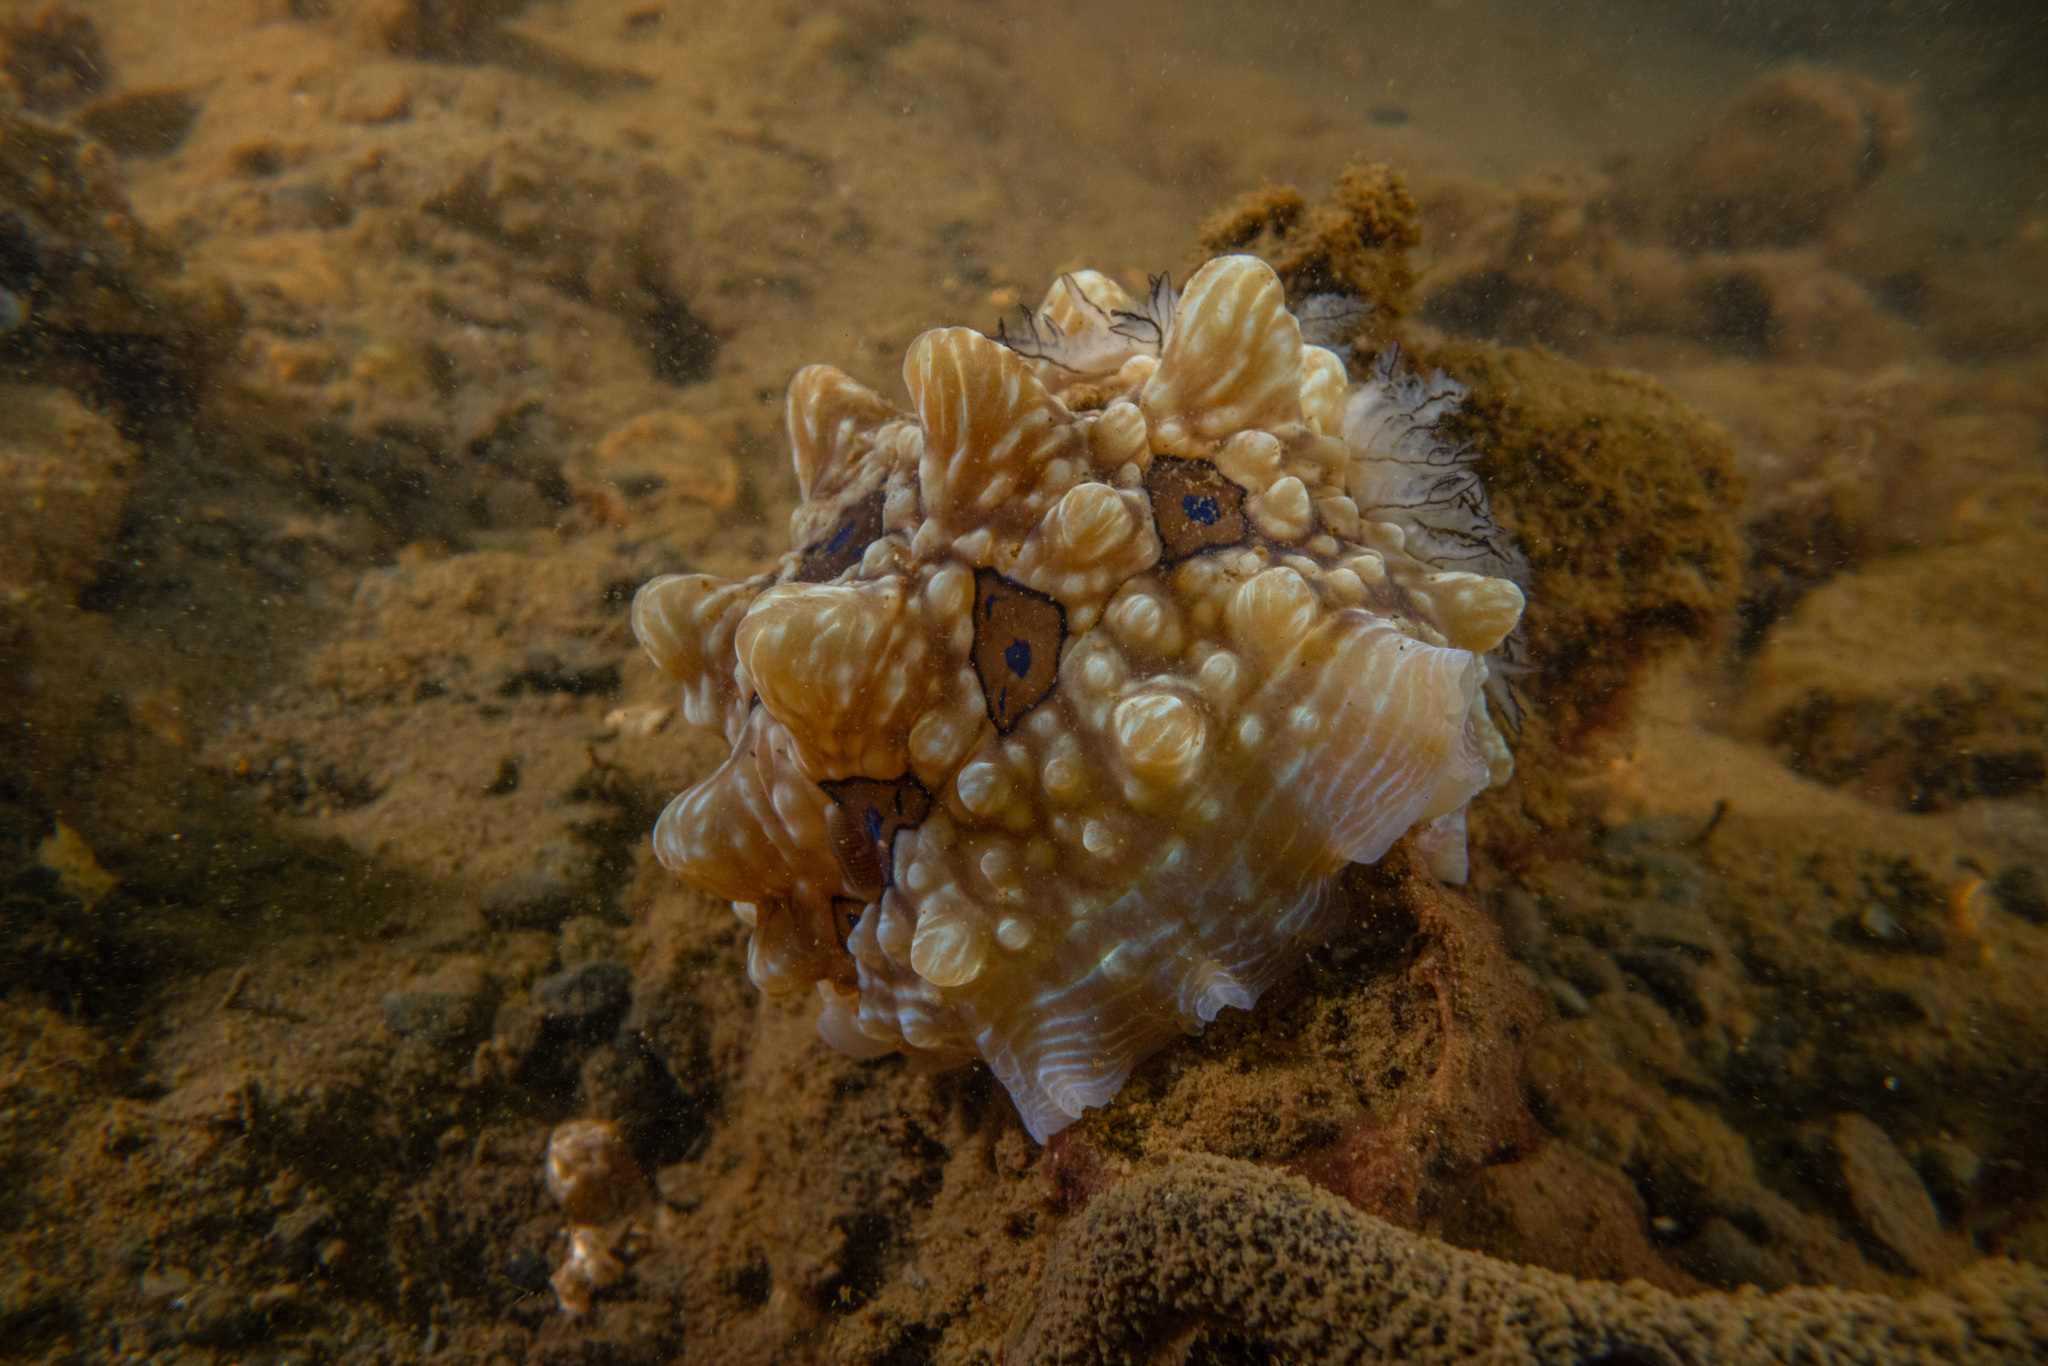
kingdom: Animalia
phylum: Mollusca
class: Gastropoda
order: Nudibranchia
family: Dendrodorididae
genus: Dendrodoris
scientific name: Dendrodoris krusensternii
